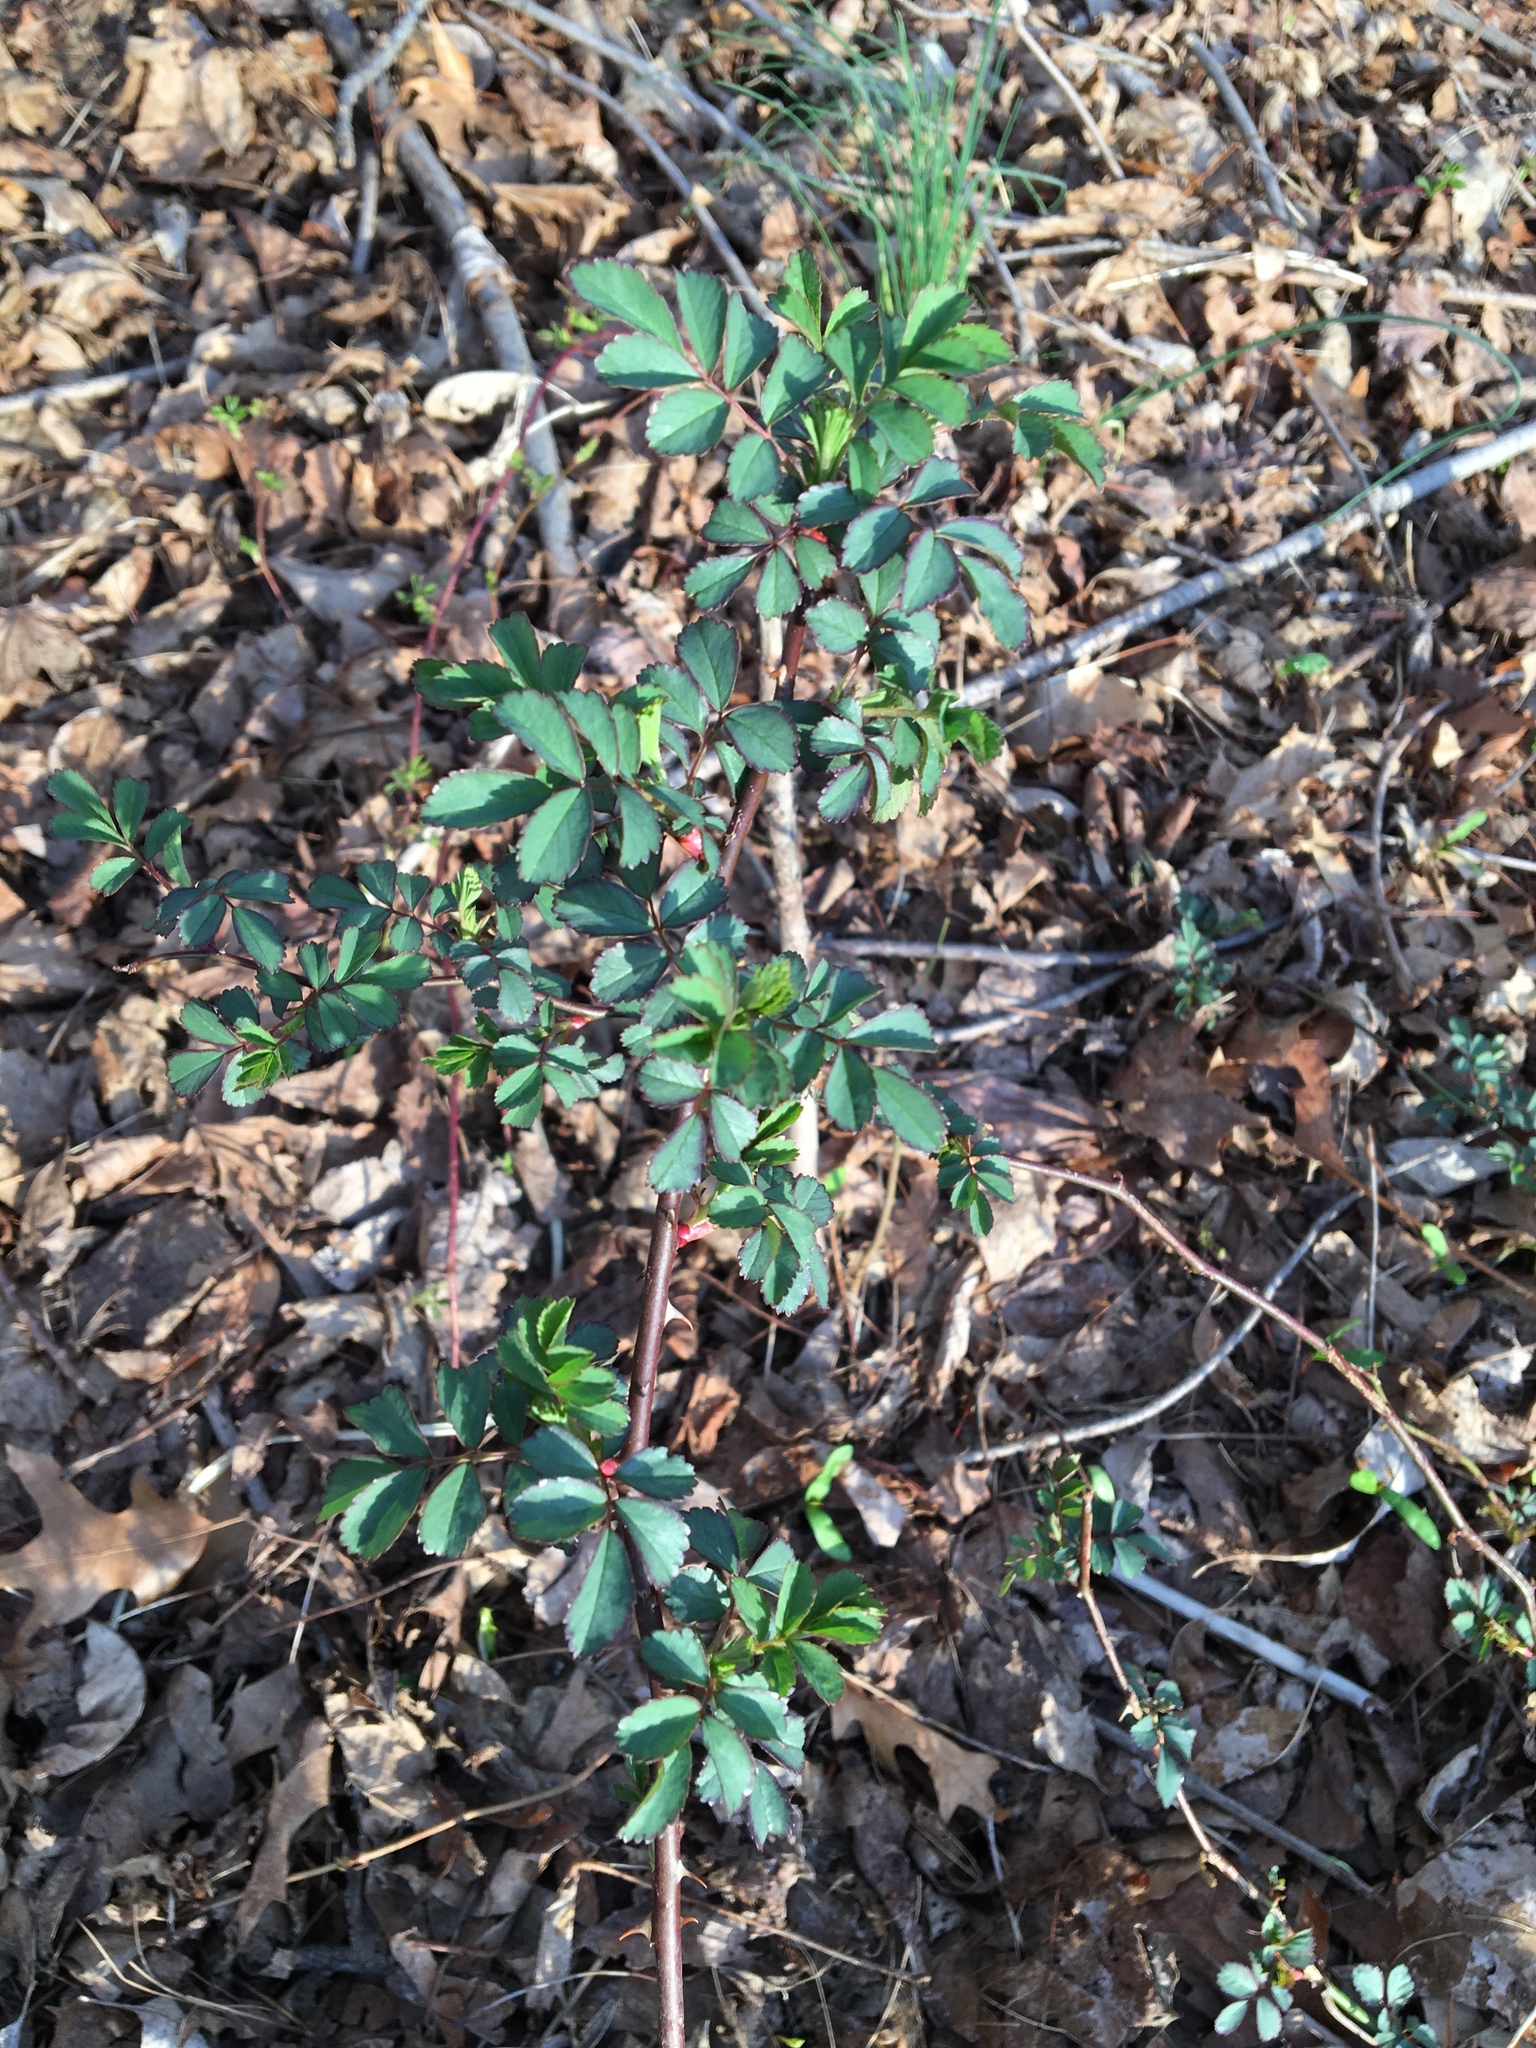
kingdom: Plantae
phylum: Tracheophyta
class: Magnoliopsida
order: Rosales
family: Rosaceae
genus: Rosa
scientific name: Rosa multiflora
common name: Multiflora rose
